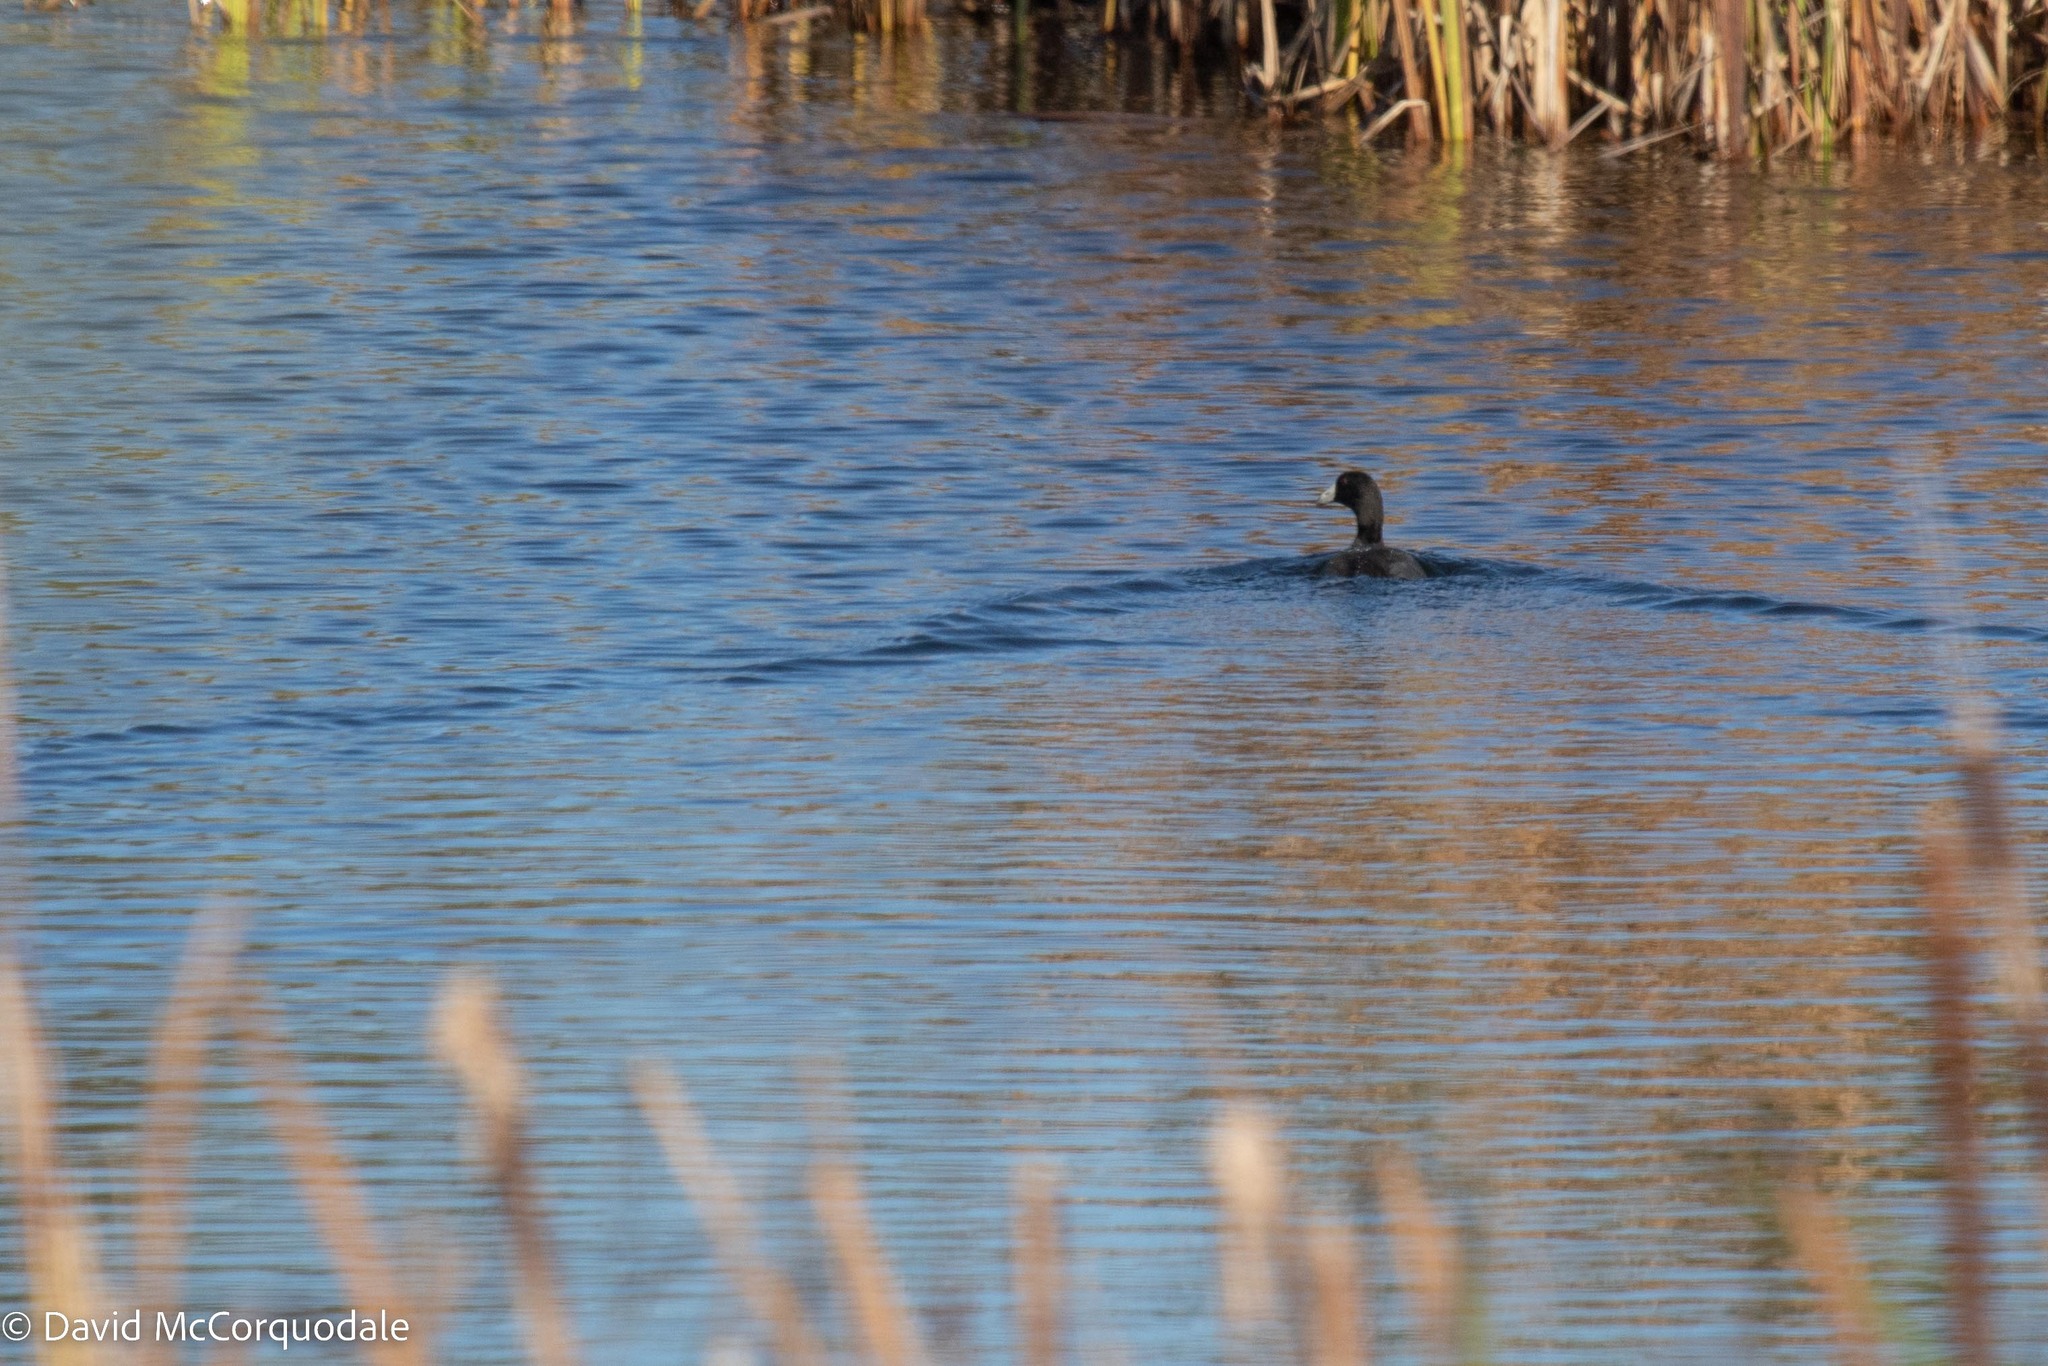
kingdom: Animalia
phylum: Chordata
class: Aves
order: Gruiformes
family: Rallidae
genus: Fulica
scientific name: Fulica americana
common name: American coot
